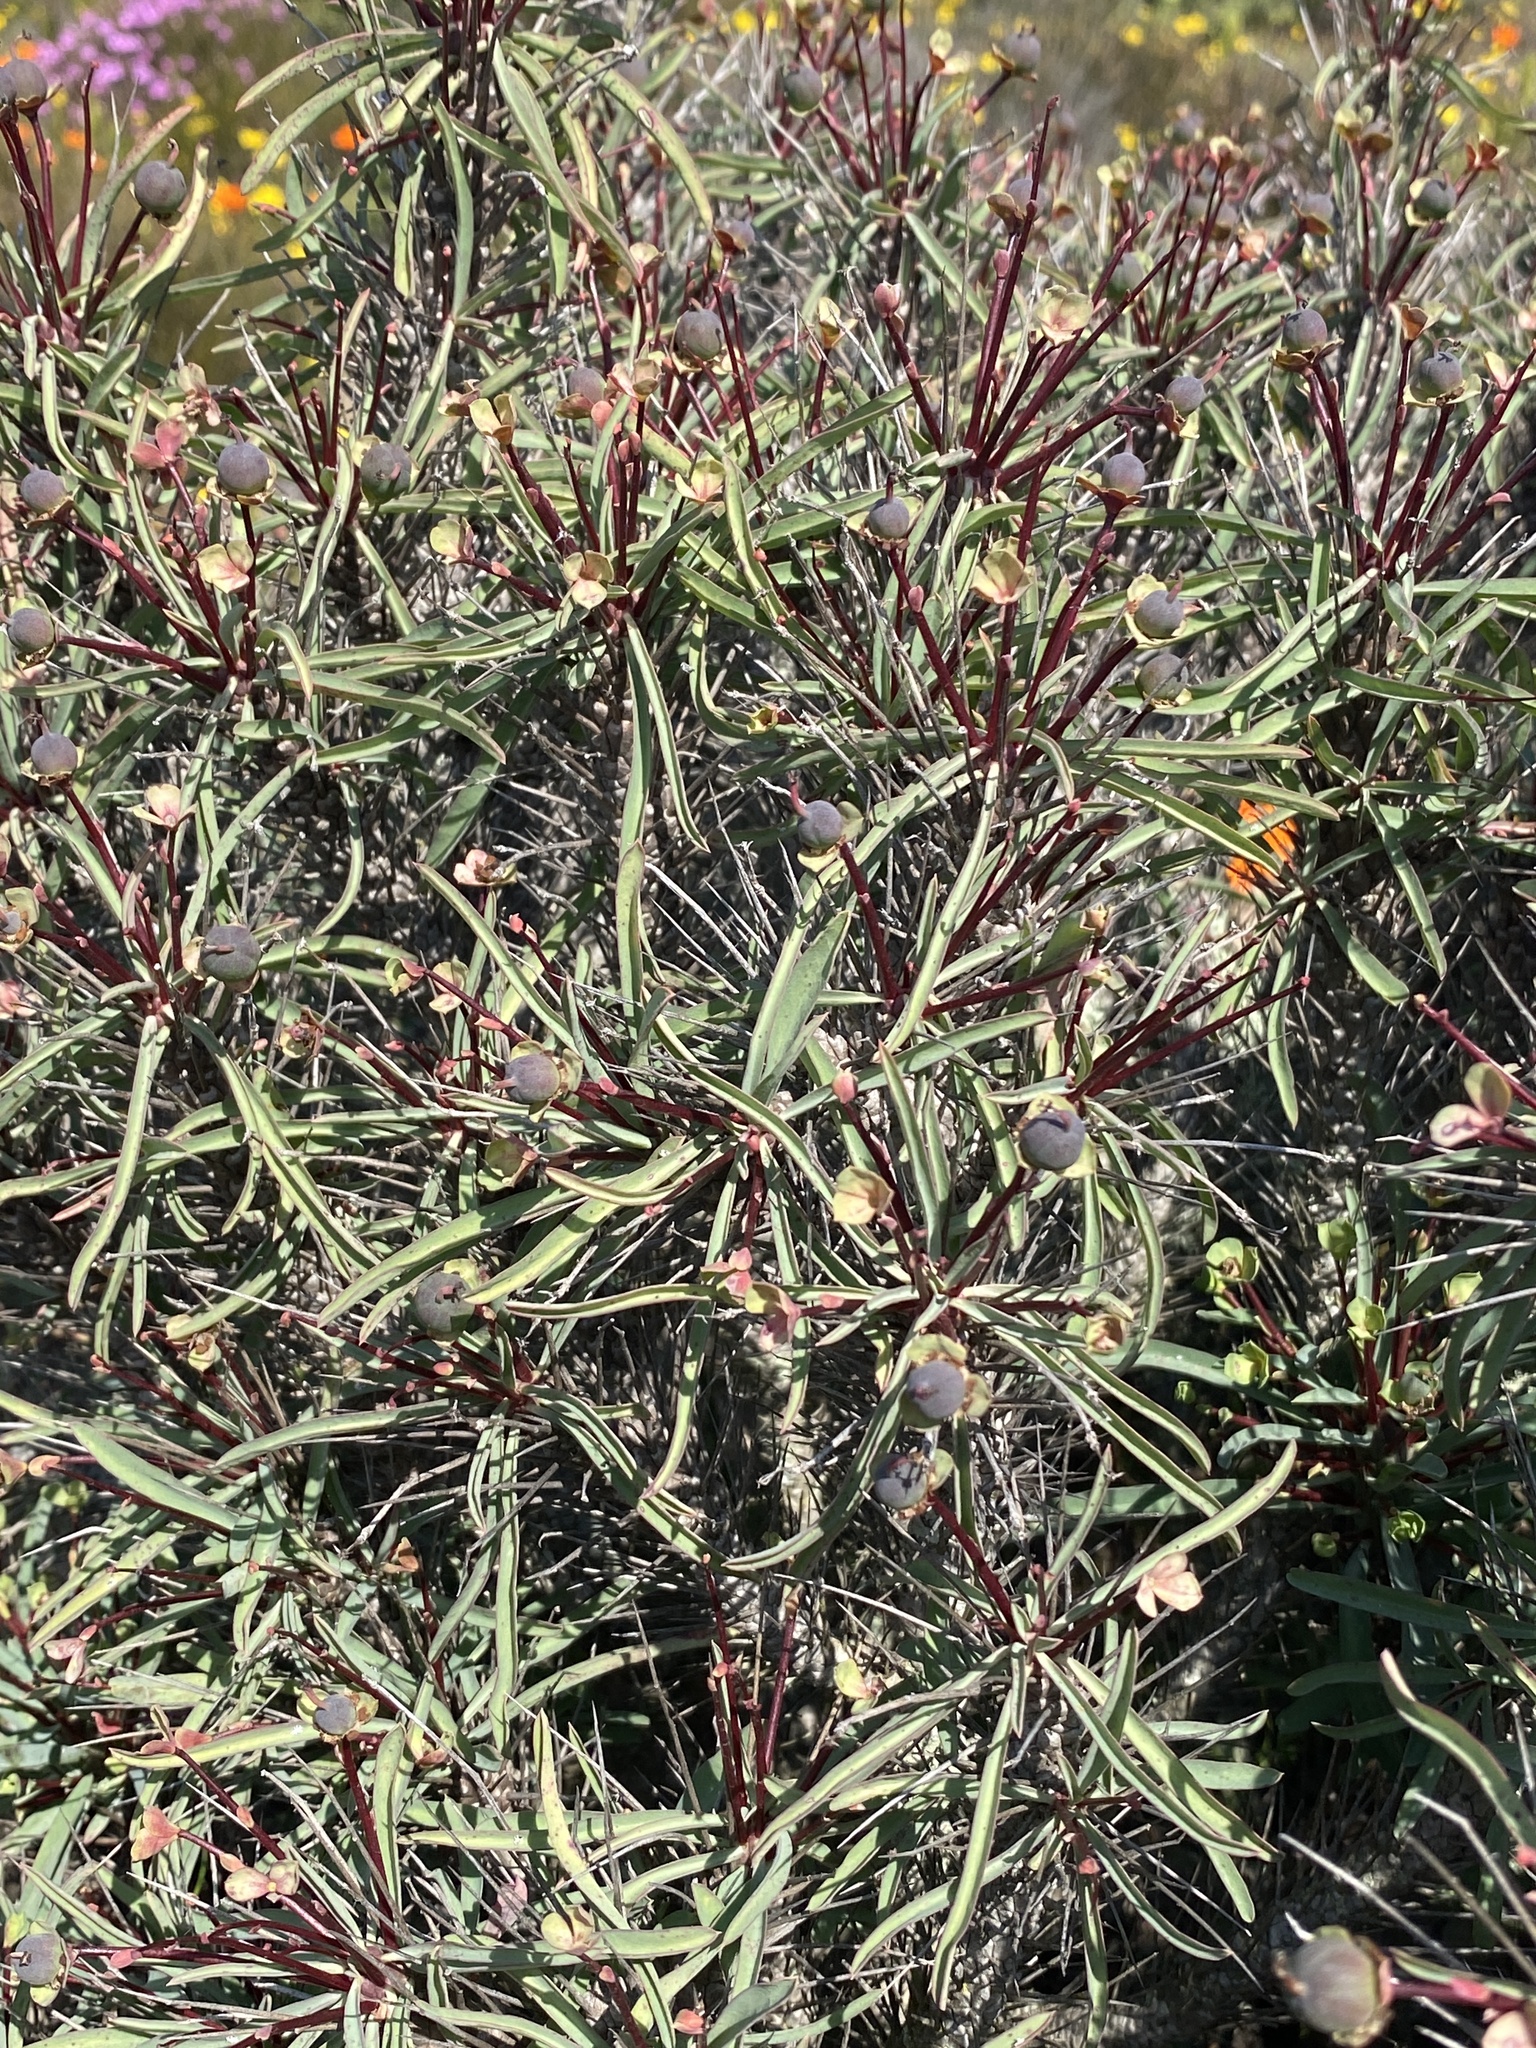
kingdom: Plantae
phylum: Tracheophyta
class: Magnoliopsida
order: Malpighiales
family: Euphorbiaceae
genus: Euphorbia
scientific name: Euphorbia loricata
